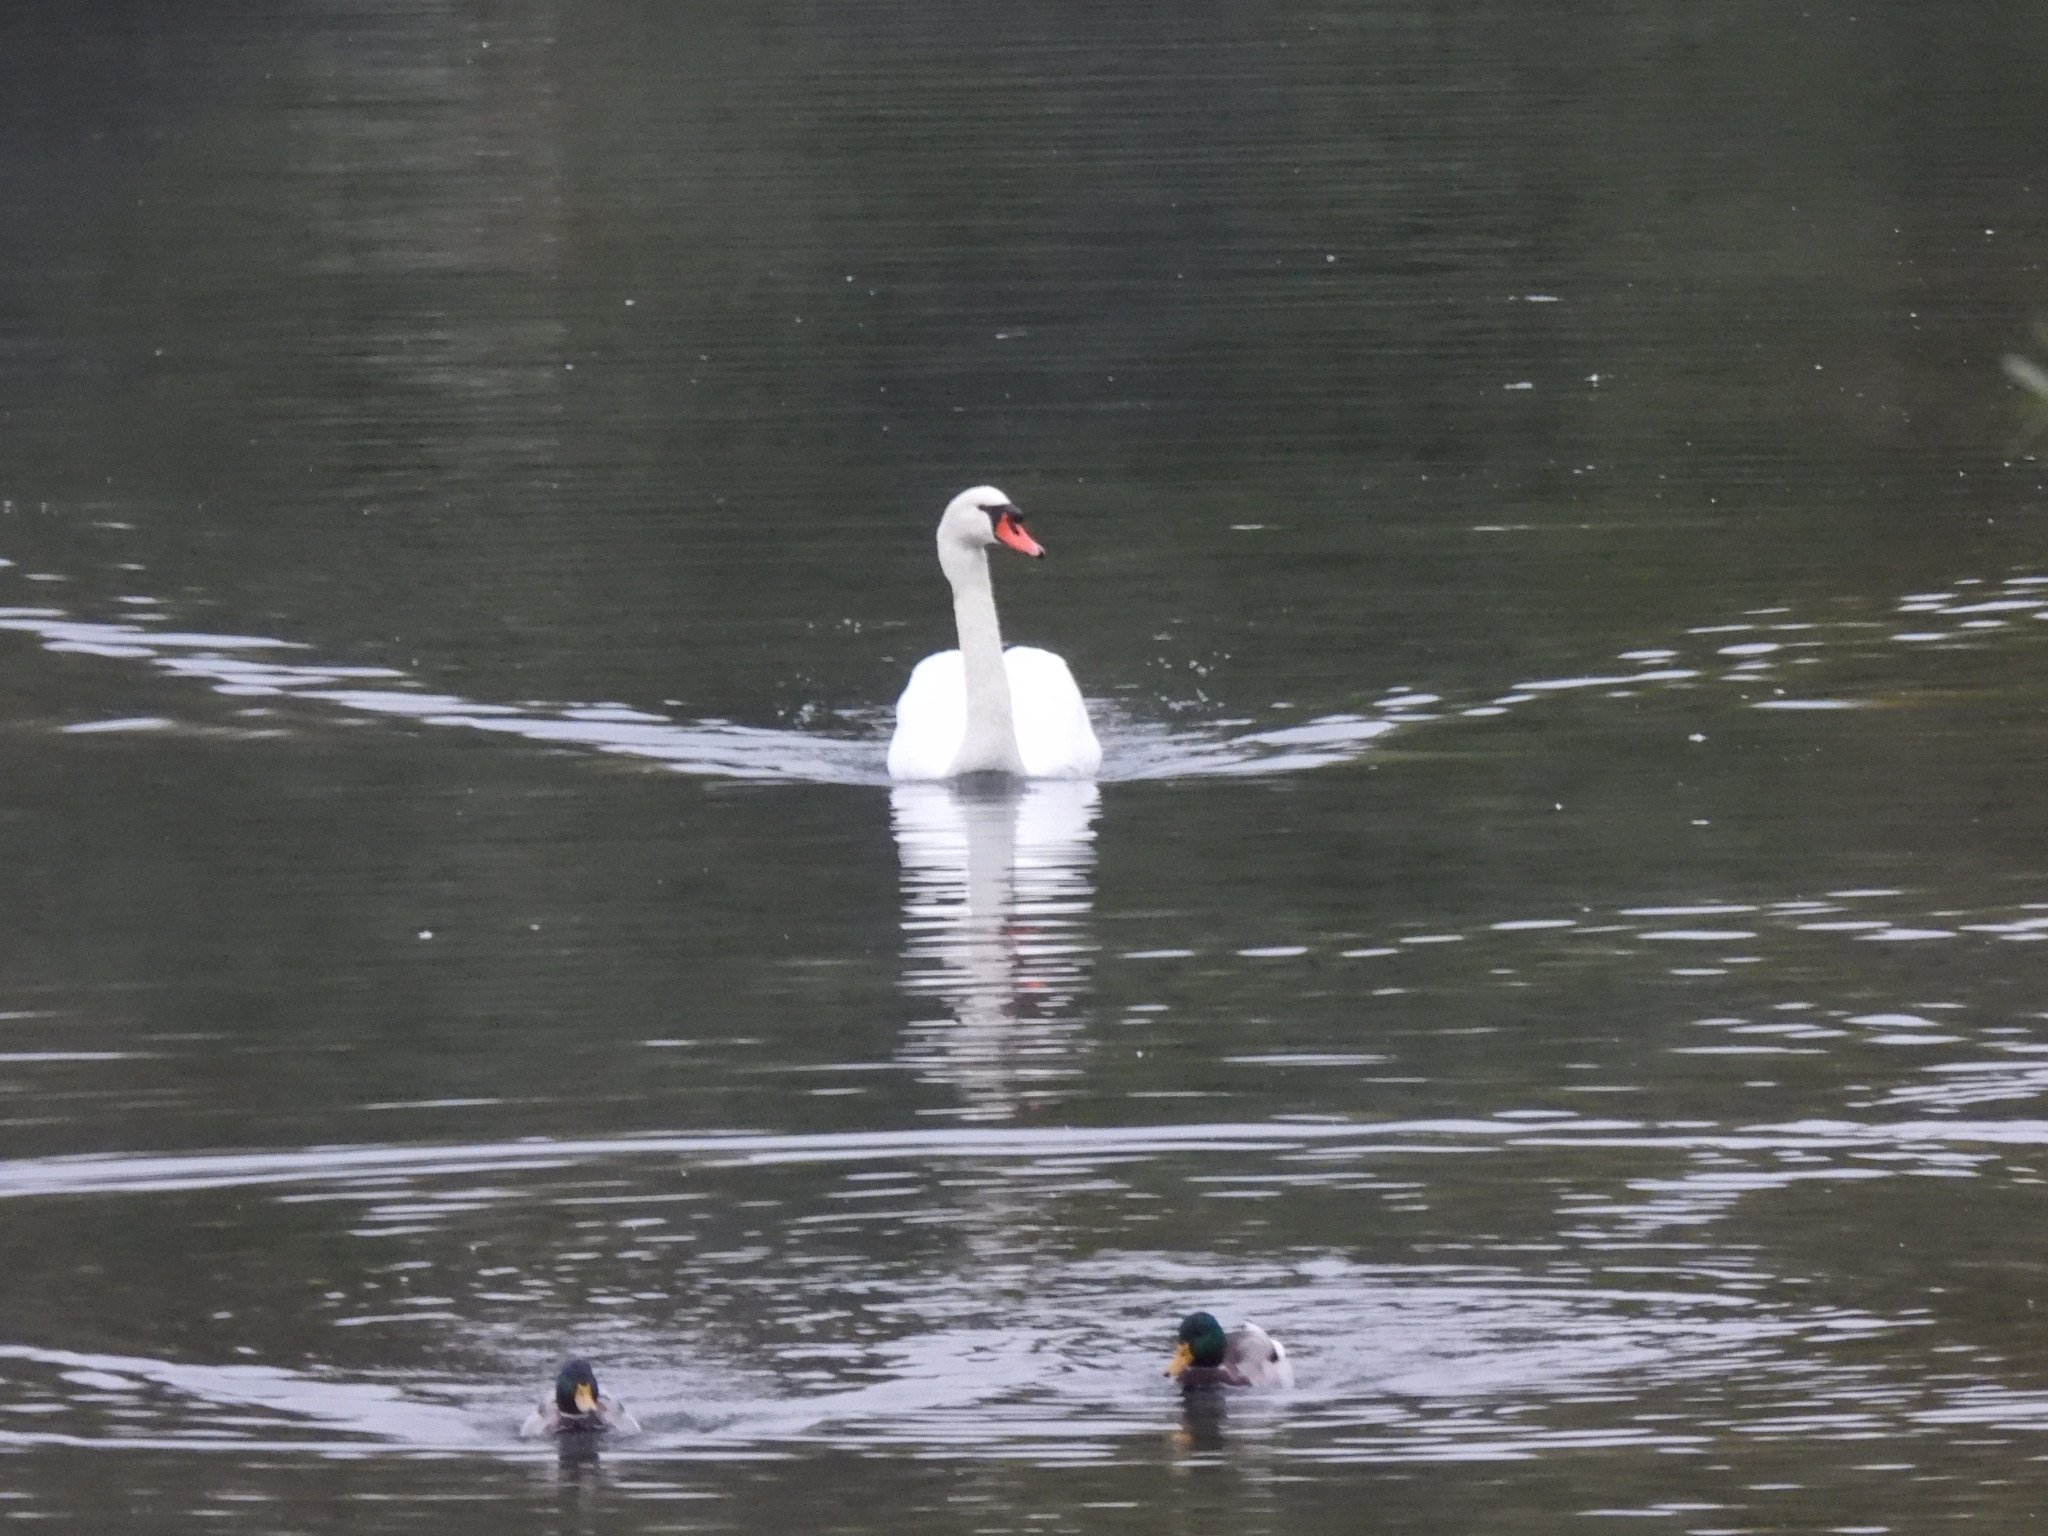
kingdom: Animalia
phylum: Chordata
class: Aves
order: Anseriformes
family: Anatidae
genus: Cygnus
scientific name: Cygnus olor
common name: Mute swan
